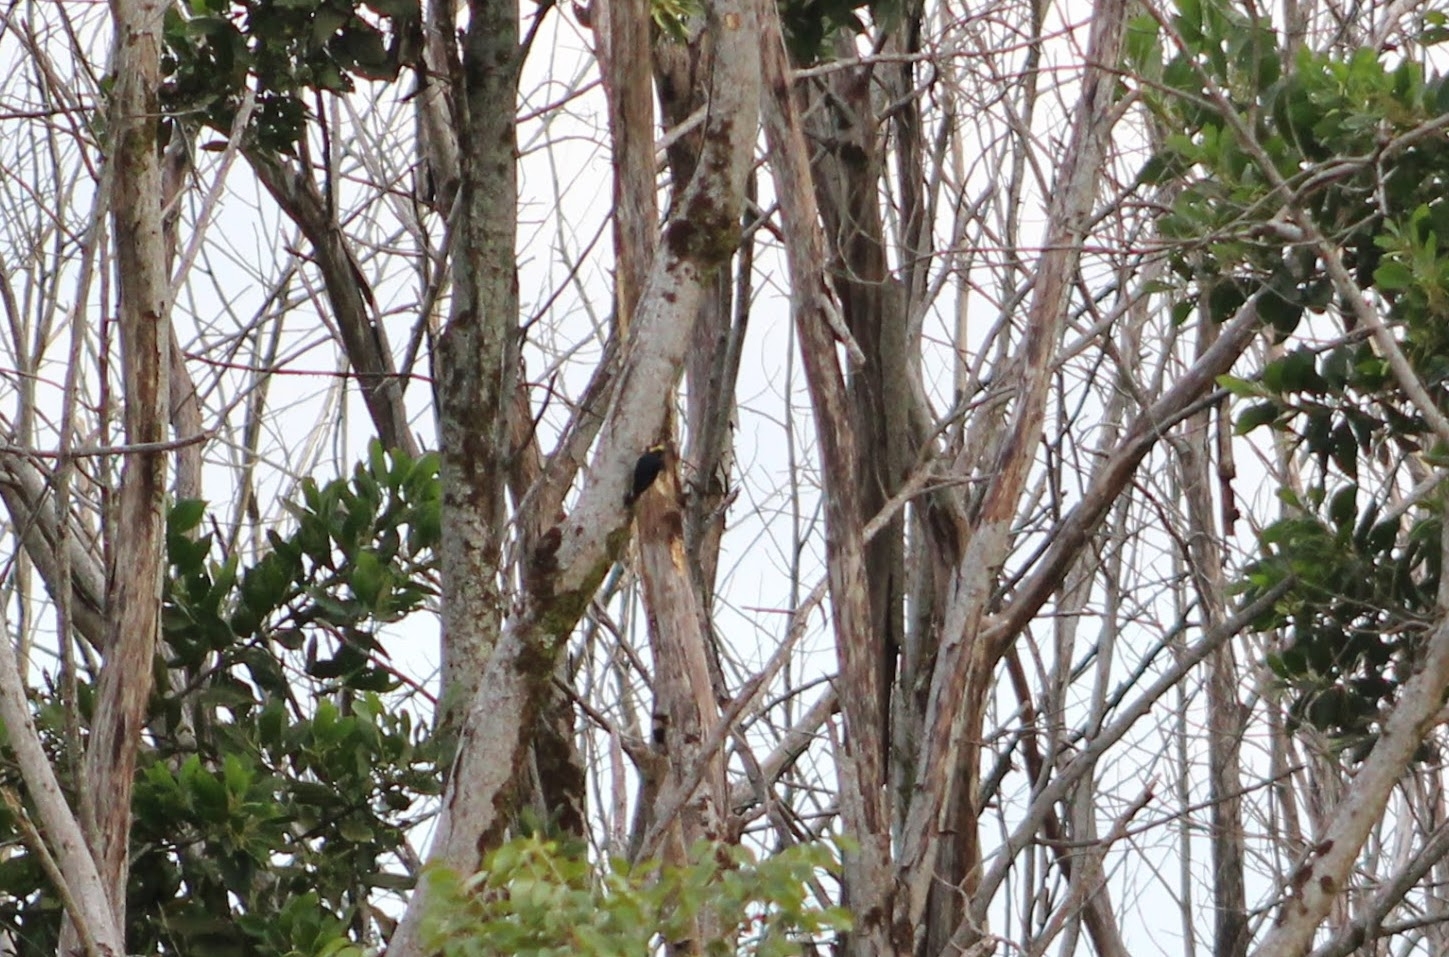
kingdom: Animalia
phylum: Chordata
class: Aves
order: Piciformes
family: Picidae
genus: Melanerpes
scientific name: Melanerpes cruentatus
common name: Yellow-tufted woodpecker
